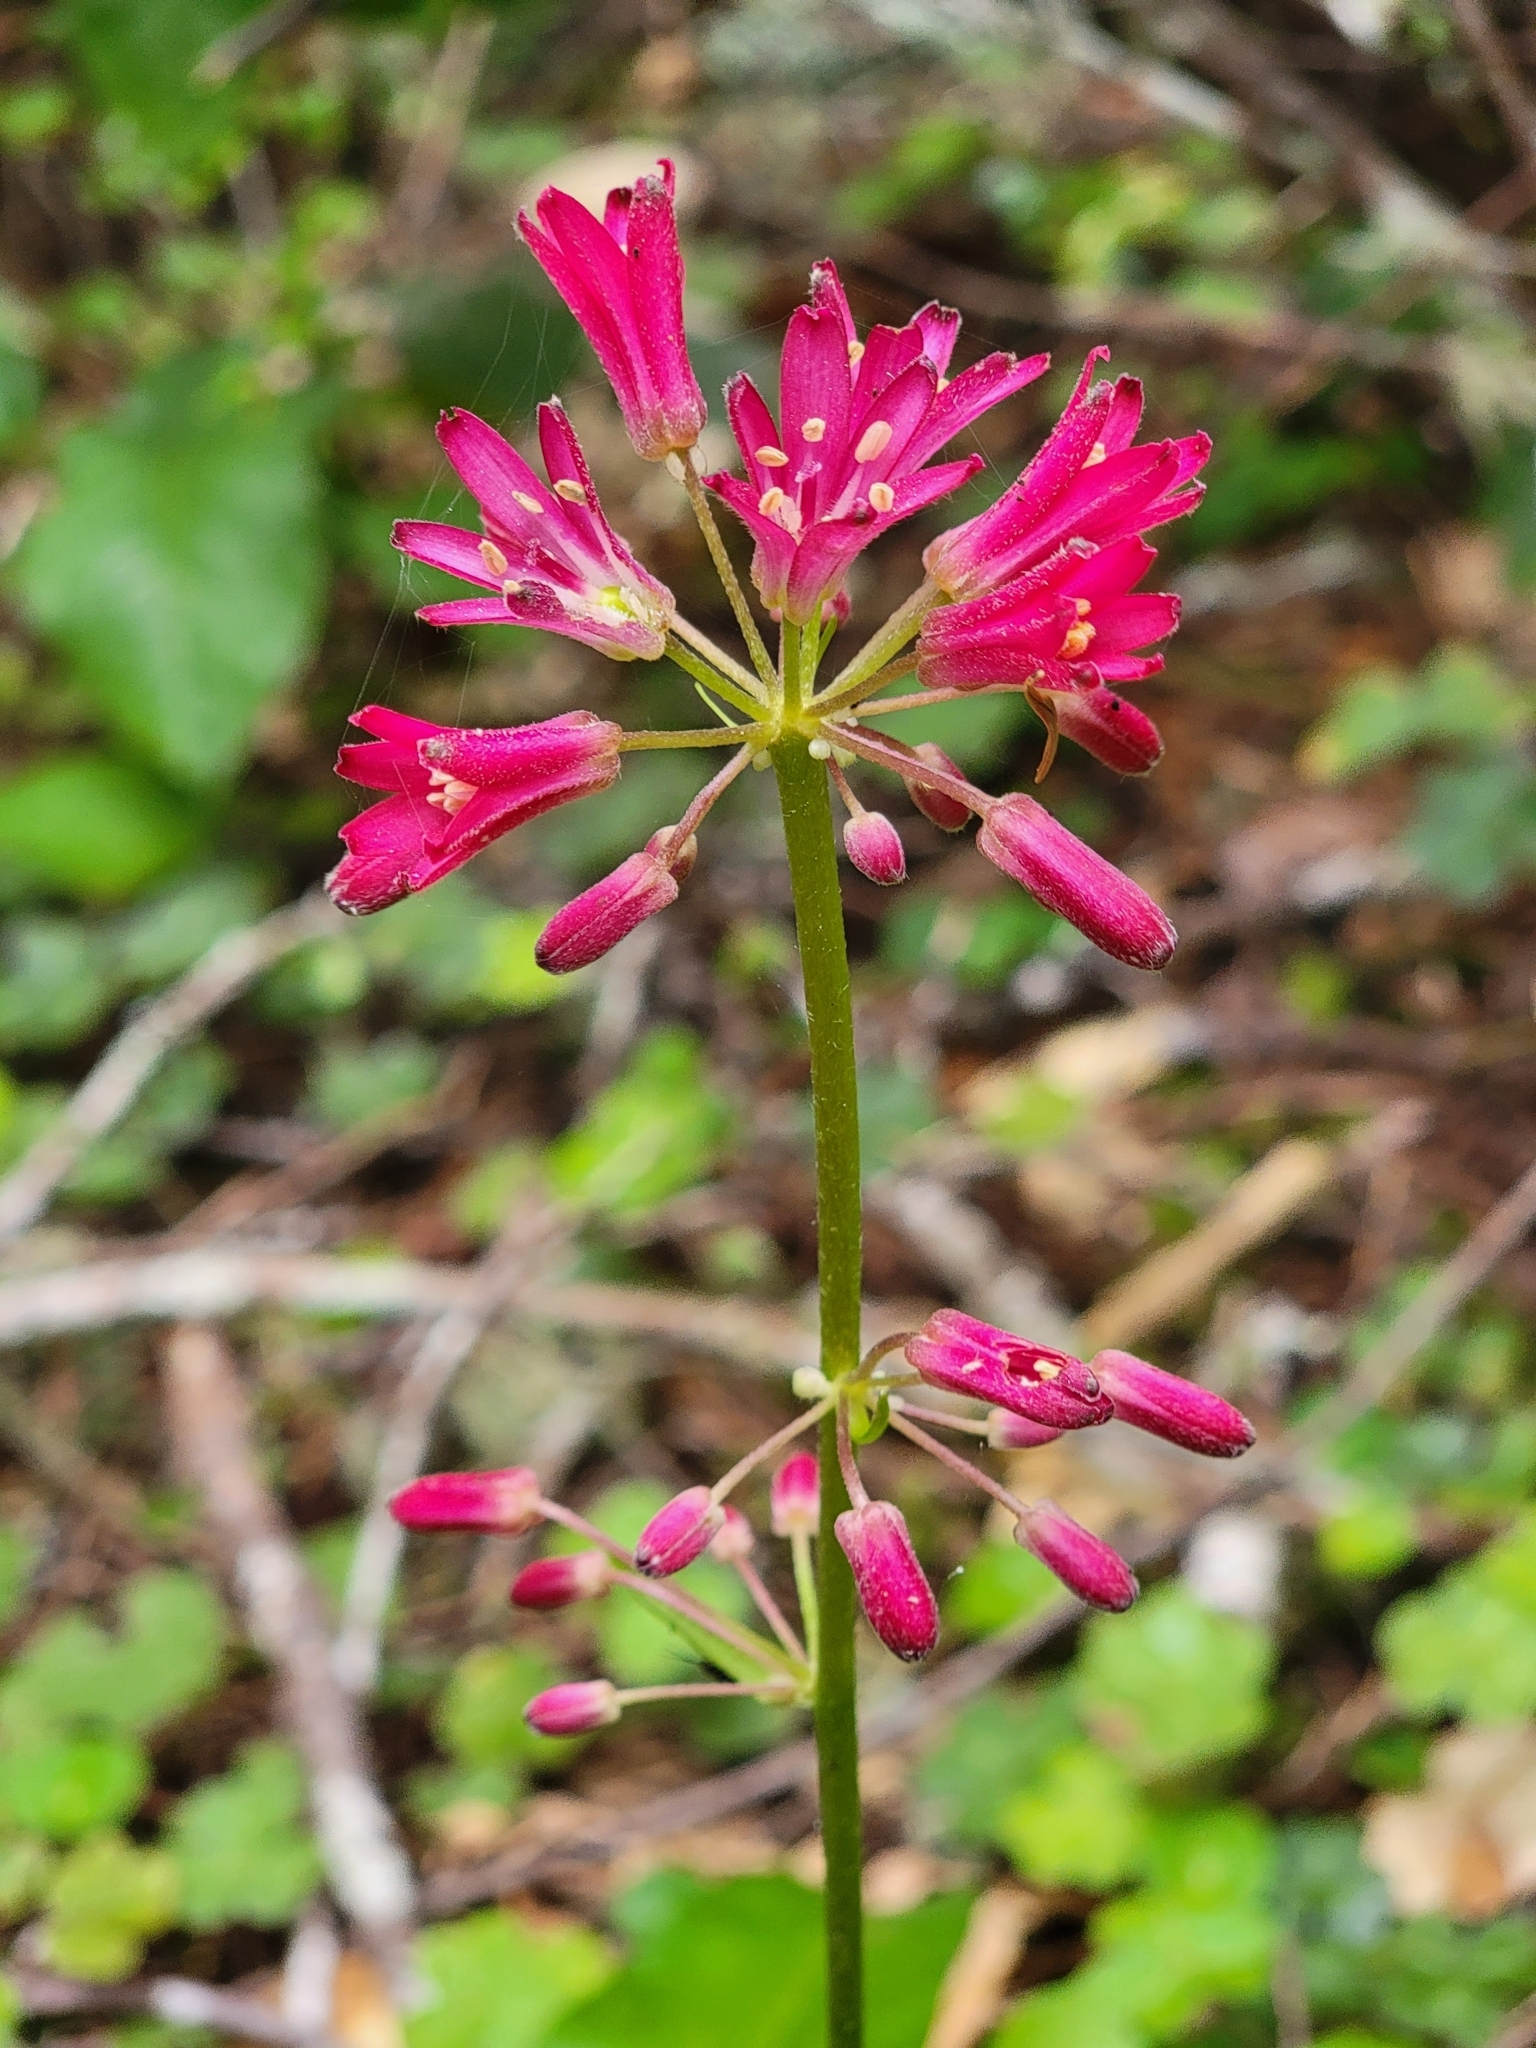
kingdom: Plantae
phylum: Tracheophyta
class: Liliopsida
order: Liliales
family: Liliaceae
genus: Clintonia
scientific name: Clintonia andrewsiana
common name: Red clintonia
